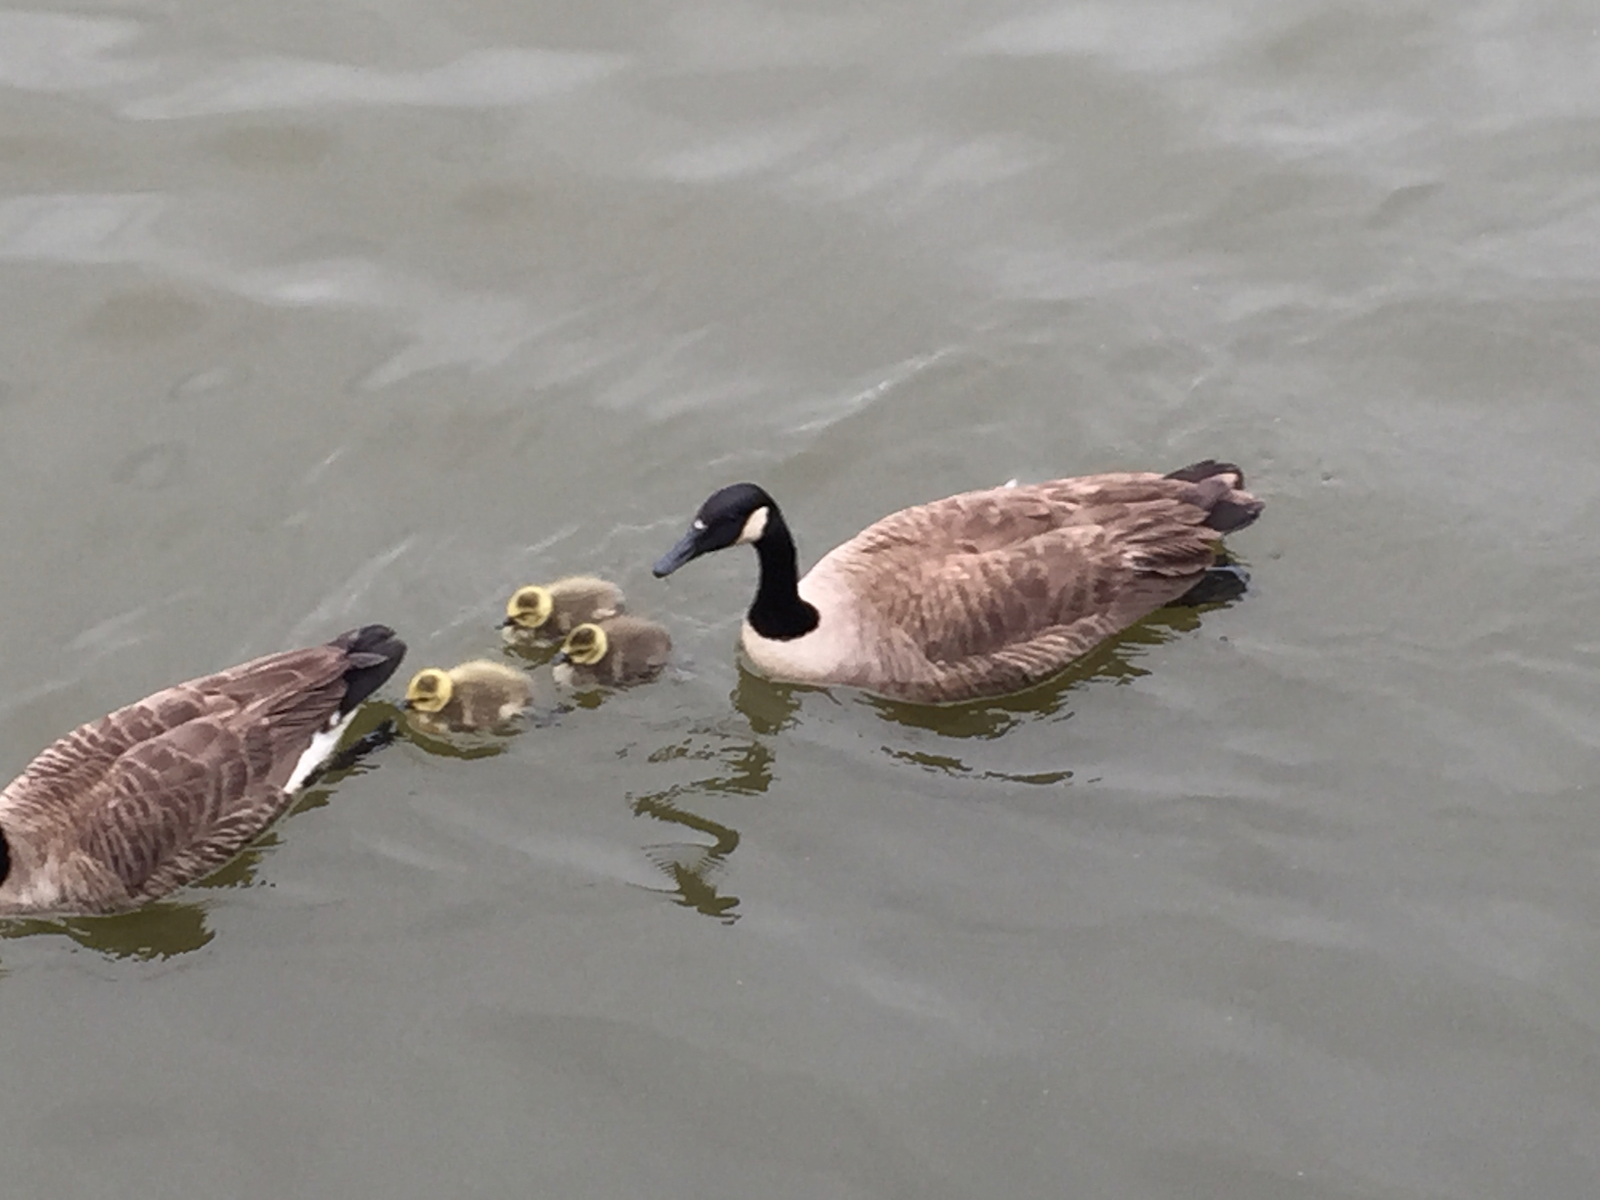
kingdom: Animalia
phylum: Chordata
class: Aves
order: Anseriformes
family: Anatidae
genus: Branta
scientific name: Branta canadensis
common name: Canada goose
